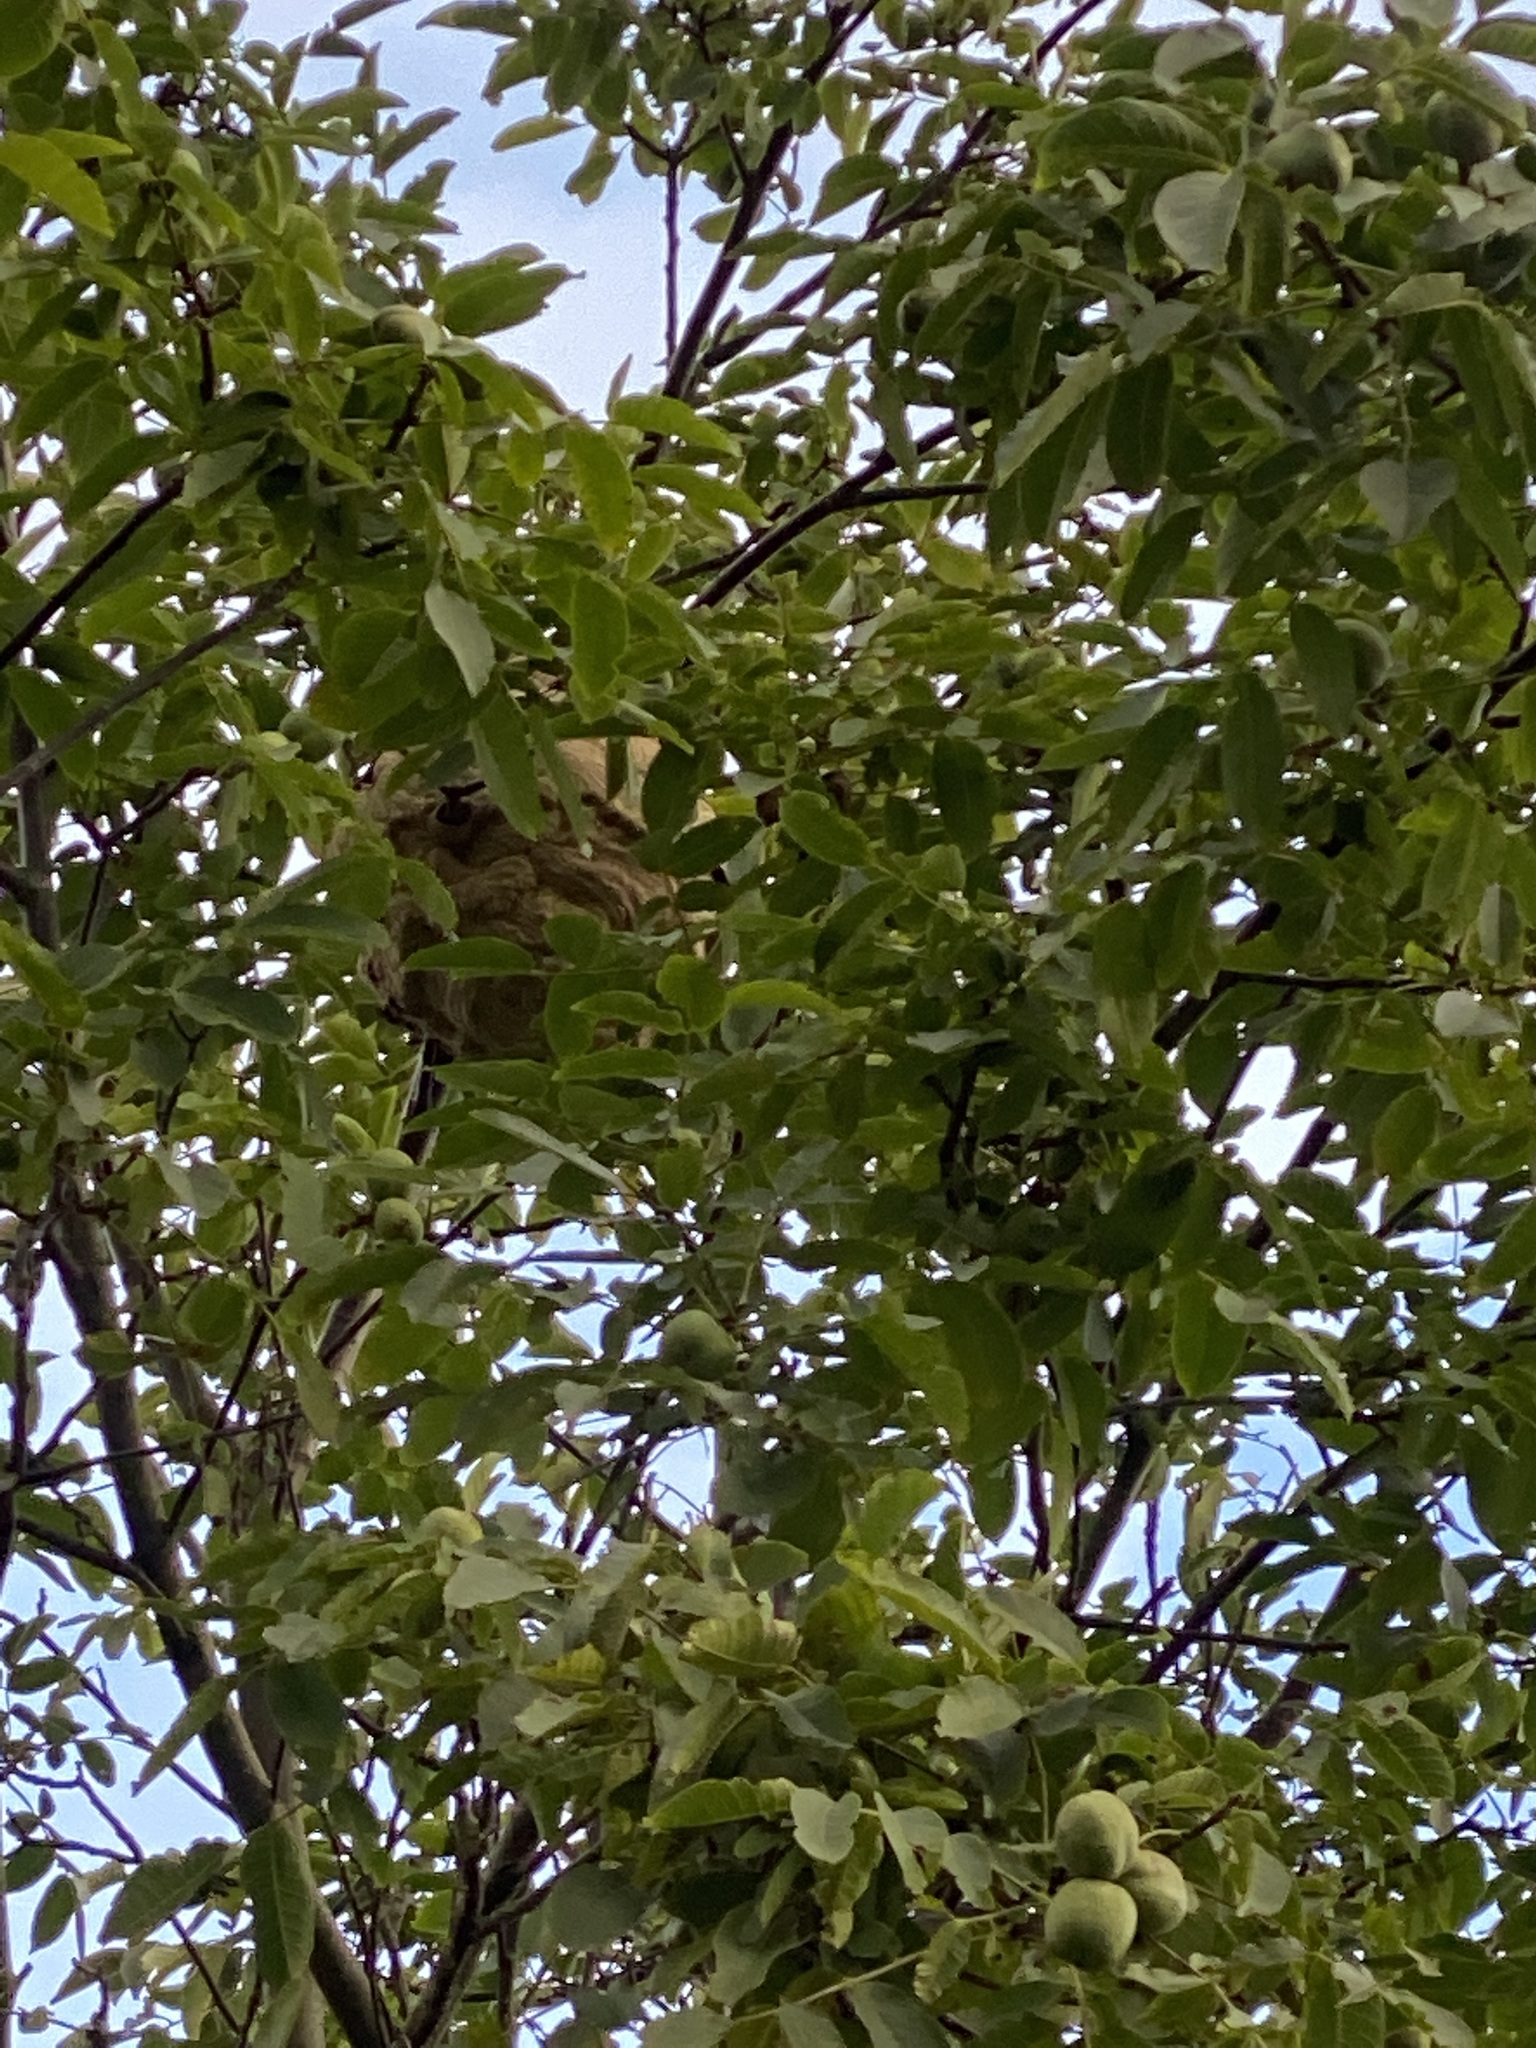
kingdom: Animalia
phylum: Arthropoda
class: Insecta
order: Hymenoptera
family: Vespidae
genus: Vespa
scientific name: Vespa velutina
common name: Asian hornet
